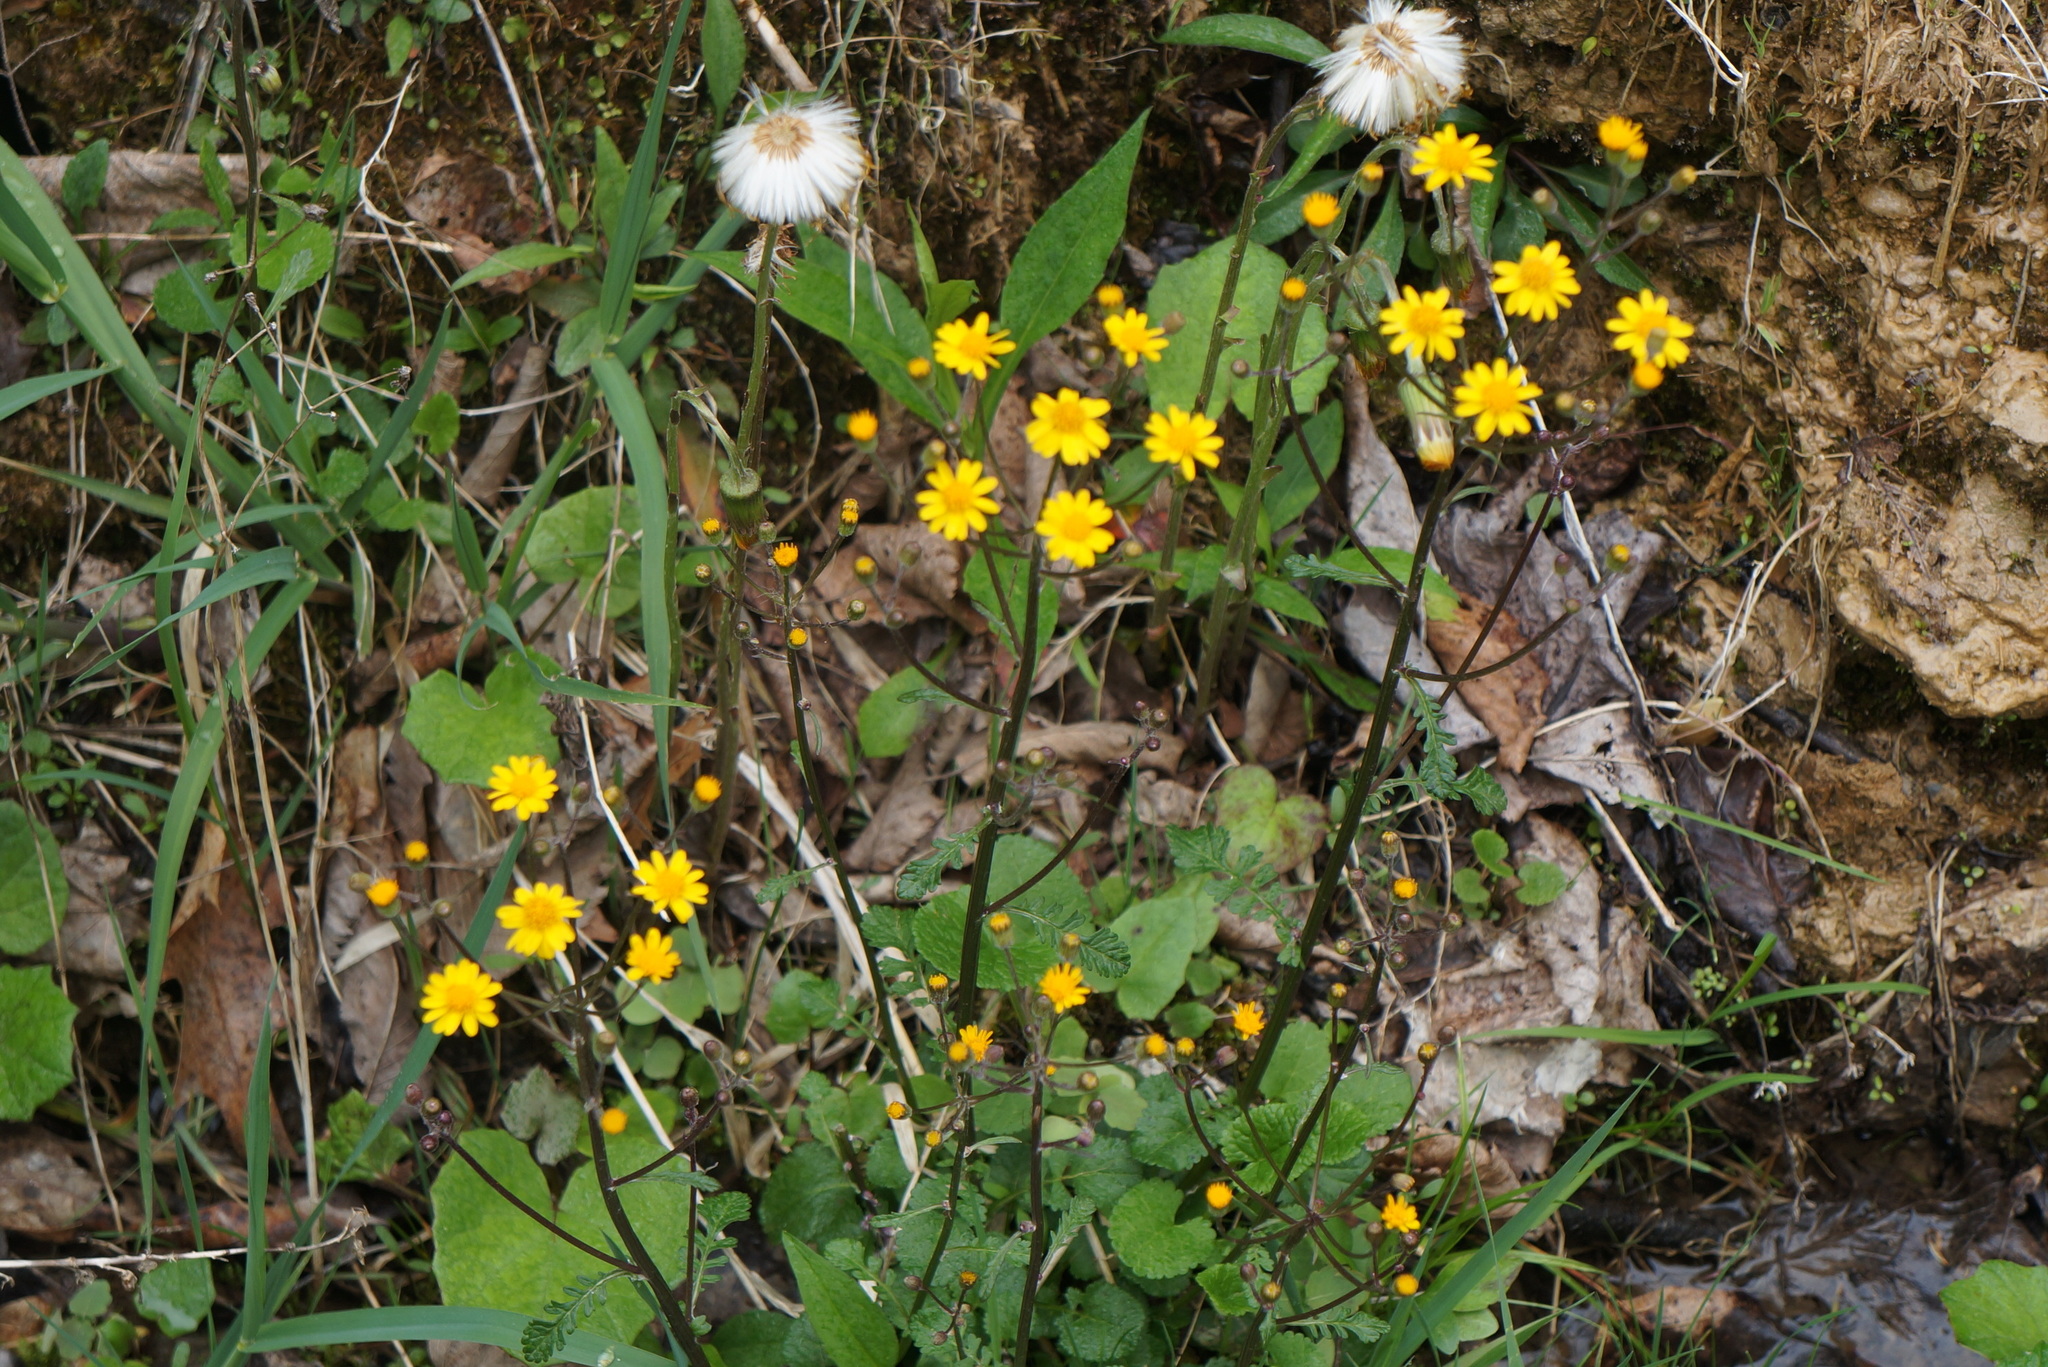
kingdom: Plantae
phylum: Tracheophyta
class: Magnoliopsida
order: Asterales
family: Asteraceae
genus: Packera
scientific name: Packera aurea
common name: Golden groundsel
